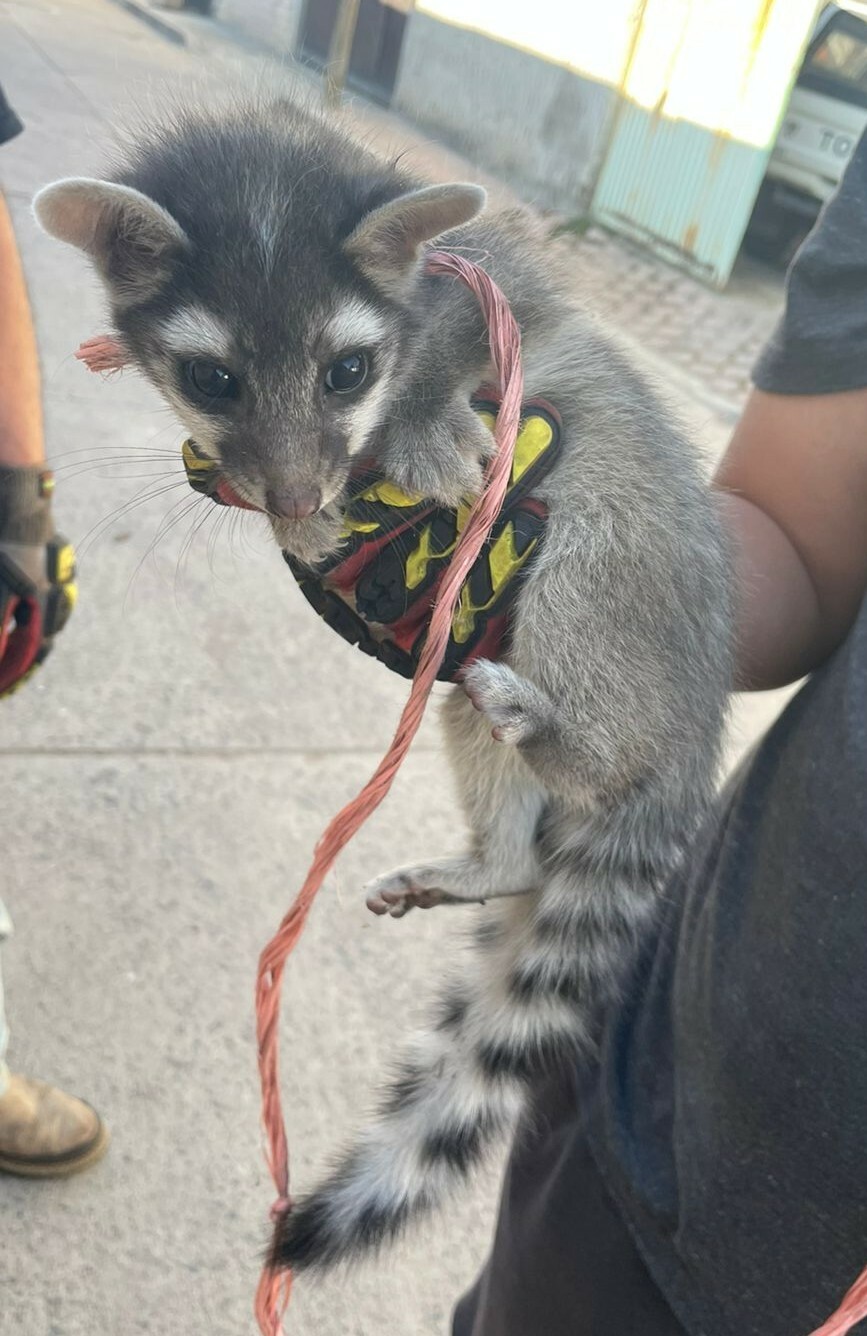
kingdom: Animalia
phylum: Chordata
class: Mammalia
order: Carnivora
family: Procyonidae
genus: Bassariscus
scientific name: Bassariscus astutus
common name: Ringtail
